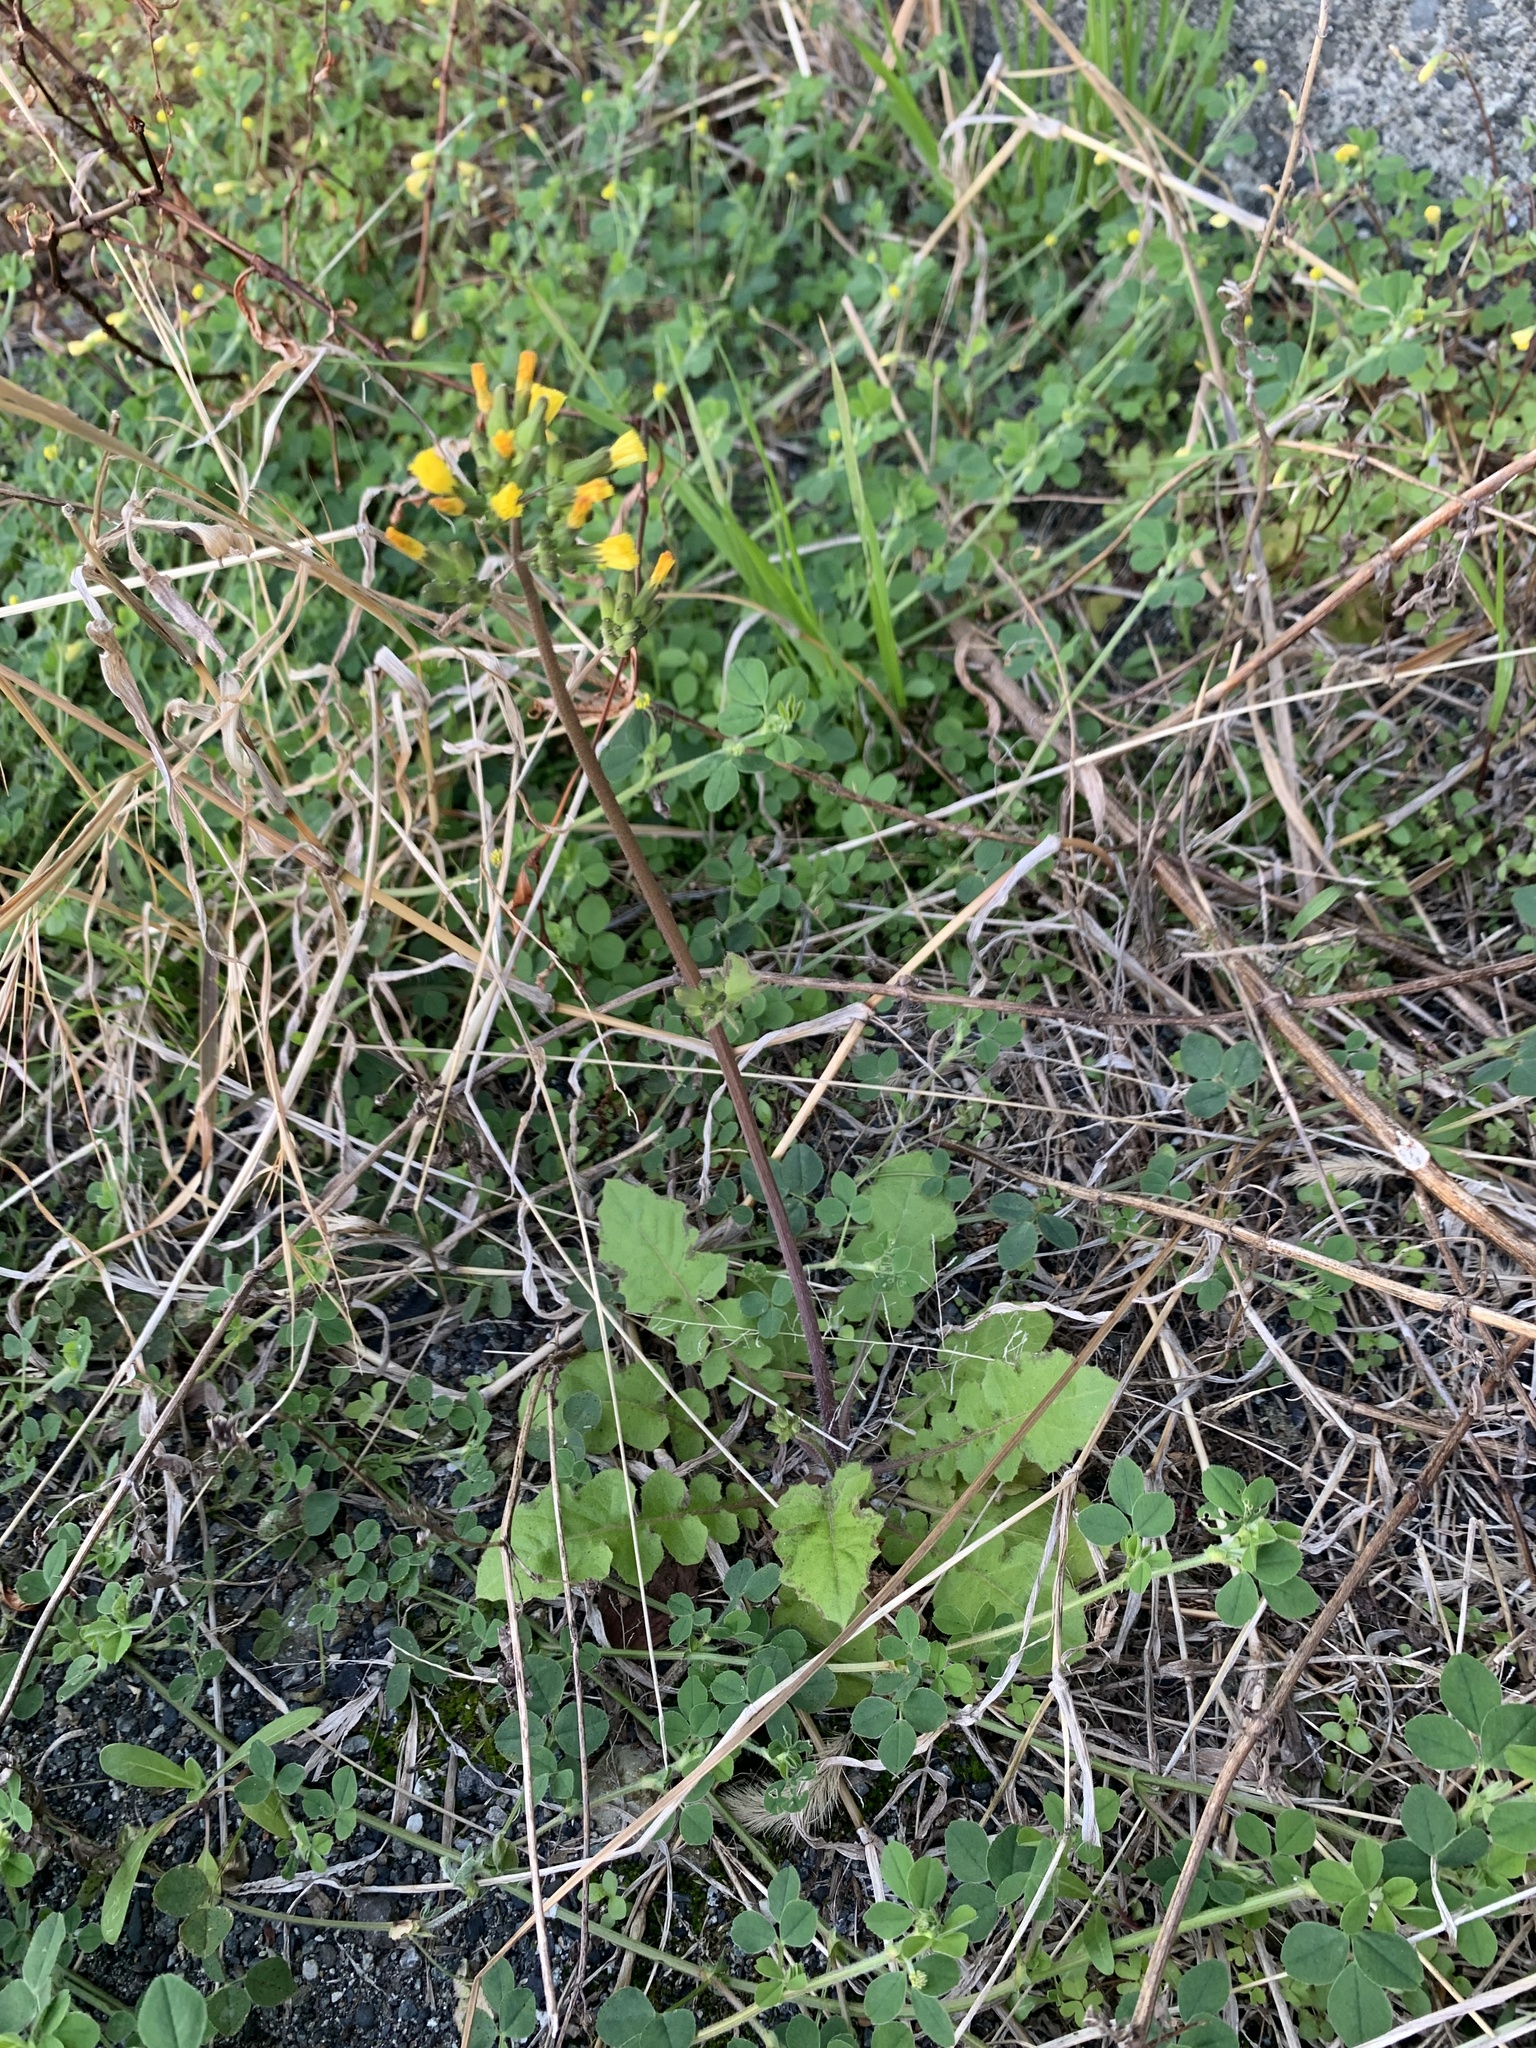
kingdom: Plantae
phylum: Tracheophyta
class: Magnoliopsida
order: Asterales
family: Asteraceae
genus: Youngia
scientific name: Youngia japonica
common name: Oriental false hawksbeard
